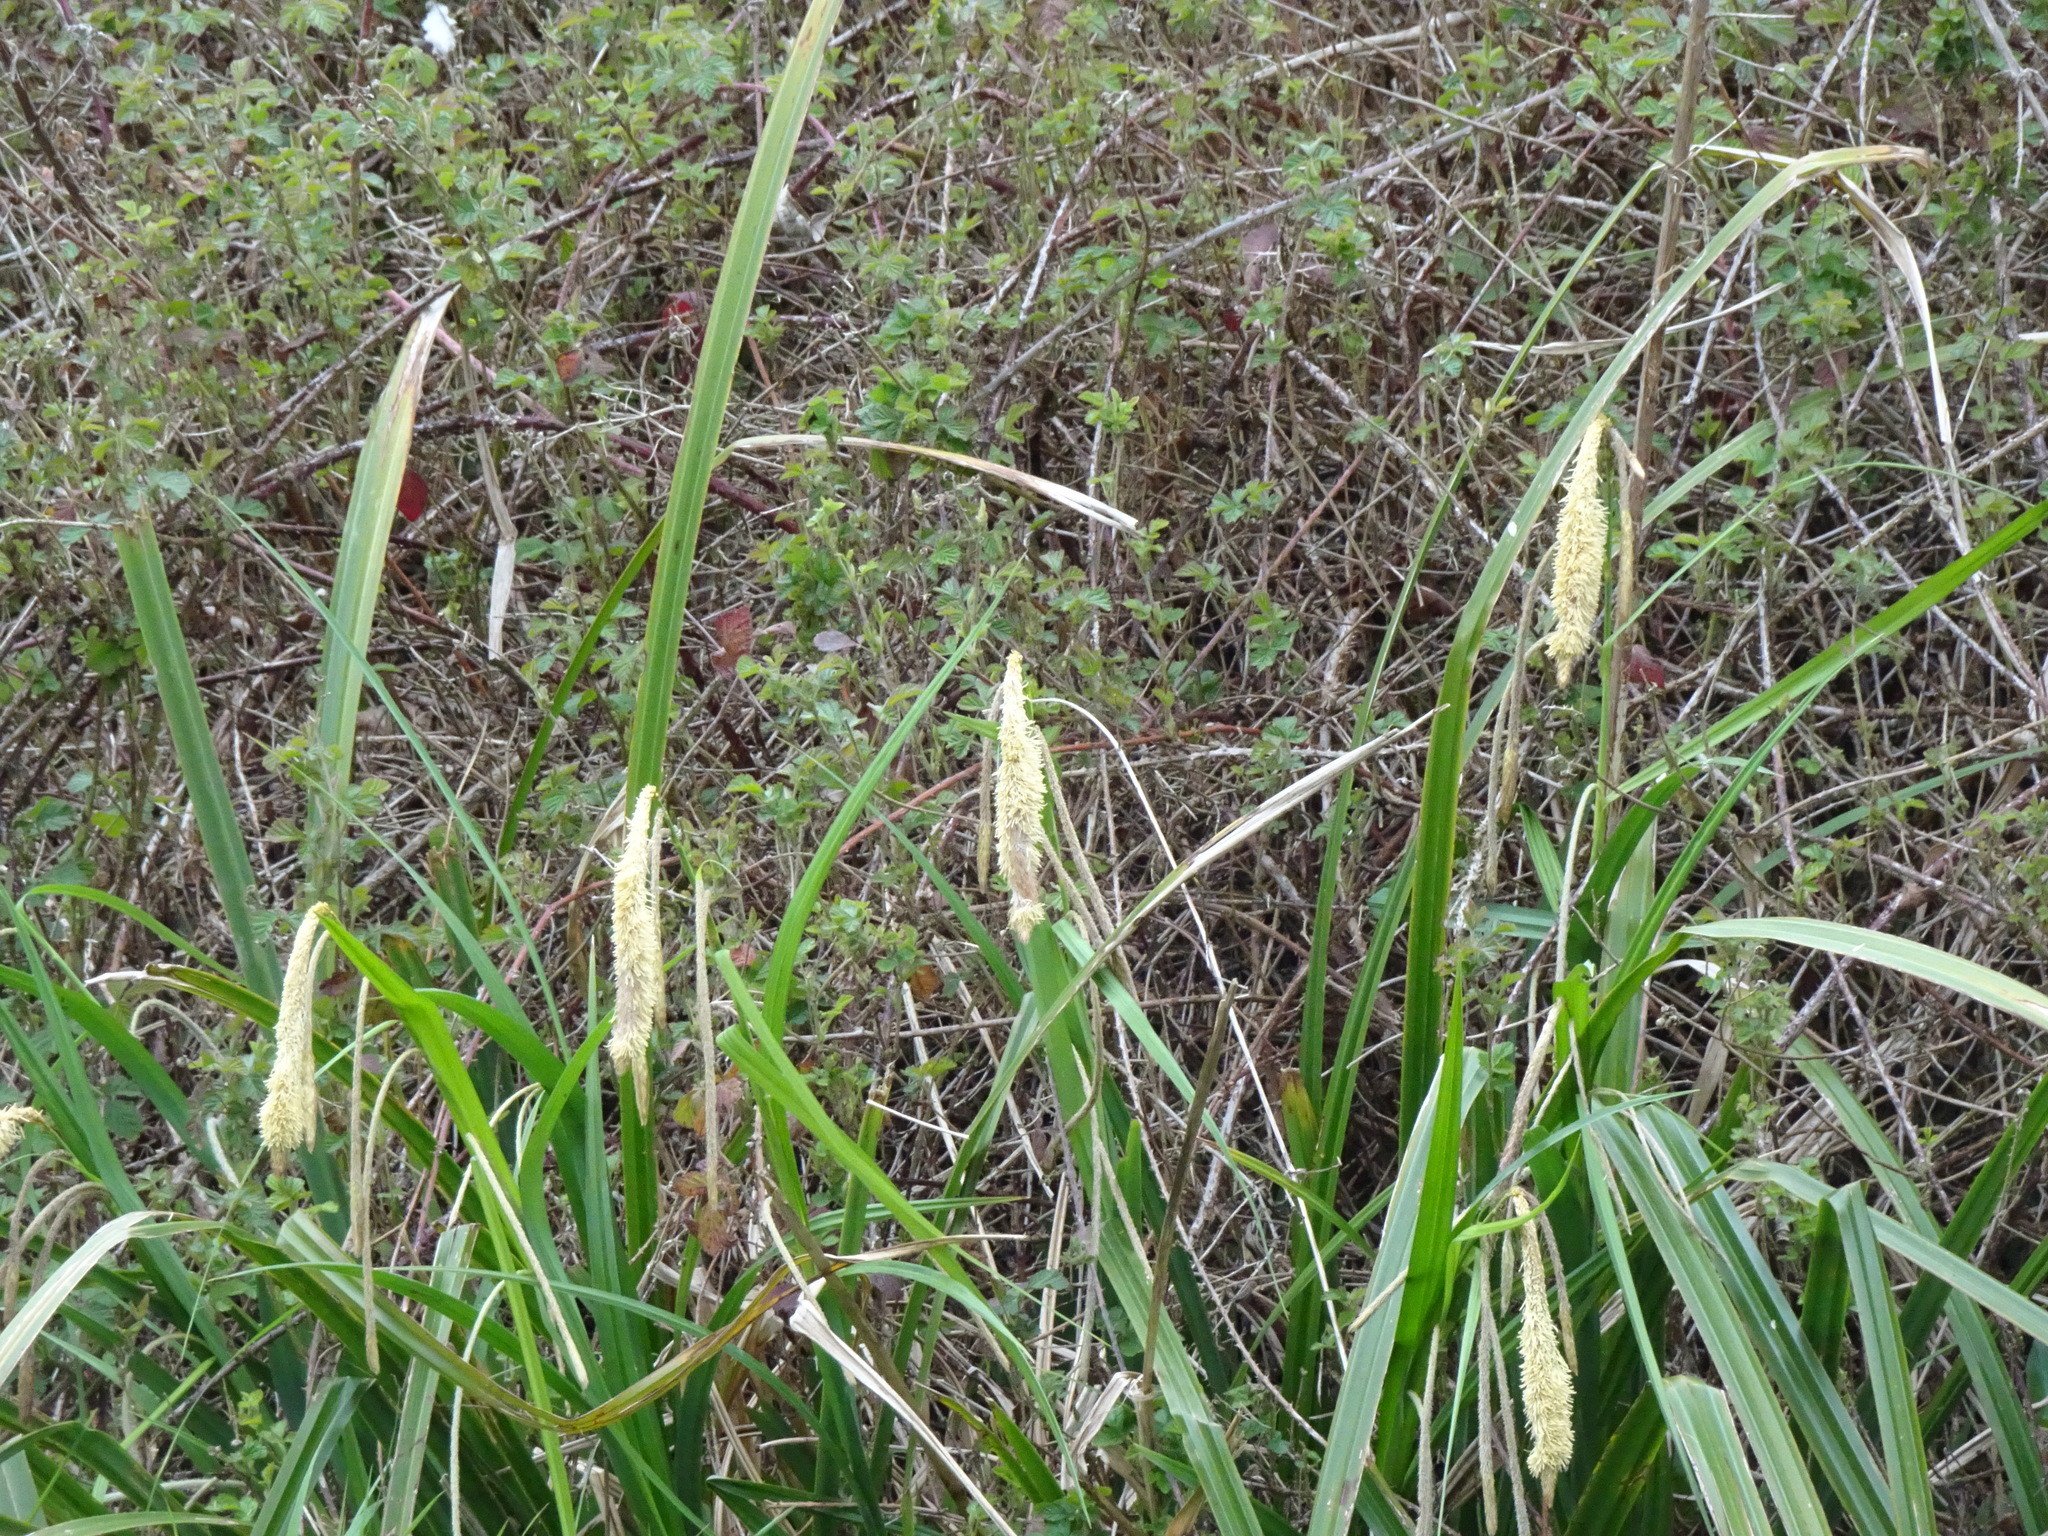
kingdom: Plantae
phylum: Tracheophyta
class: Liliopsida
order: Poales
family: Cyperaceae
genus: Carex
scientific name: Carex pendula
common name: Pendulous sedge
